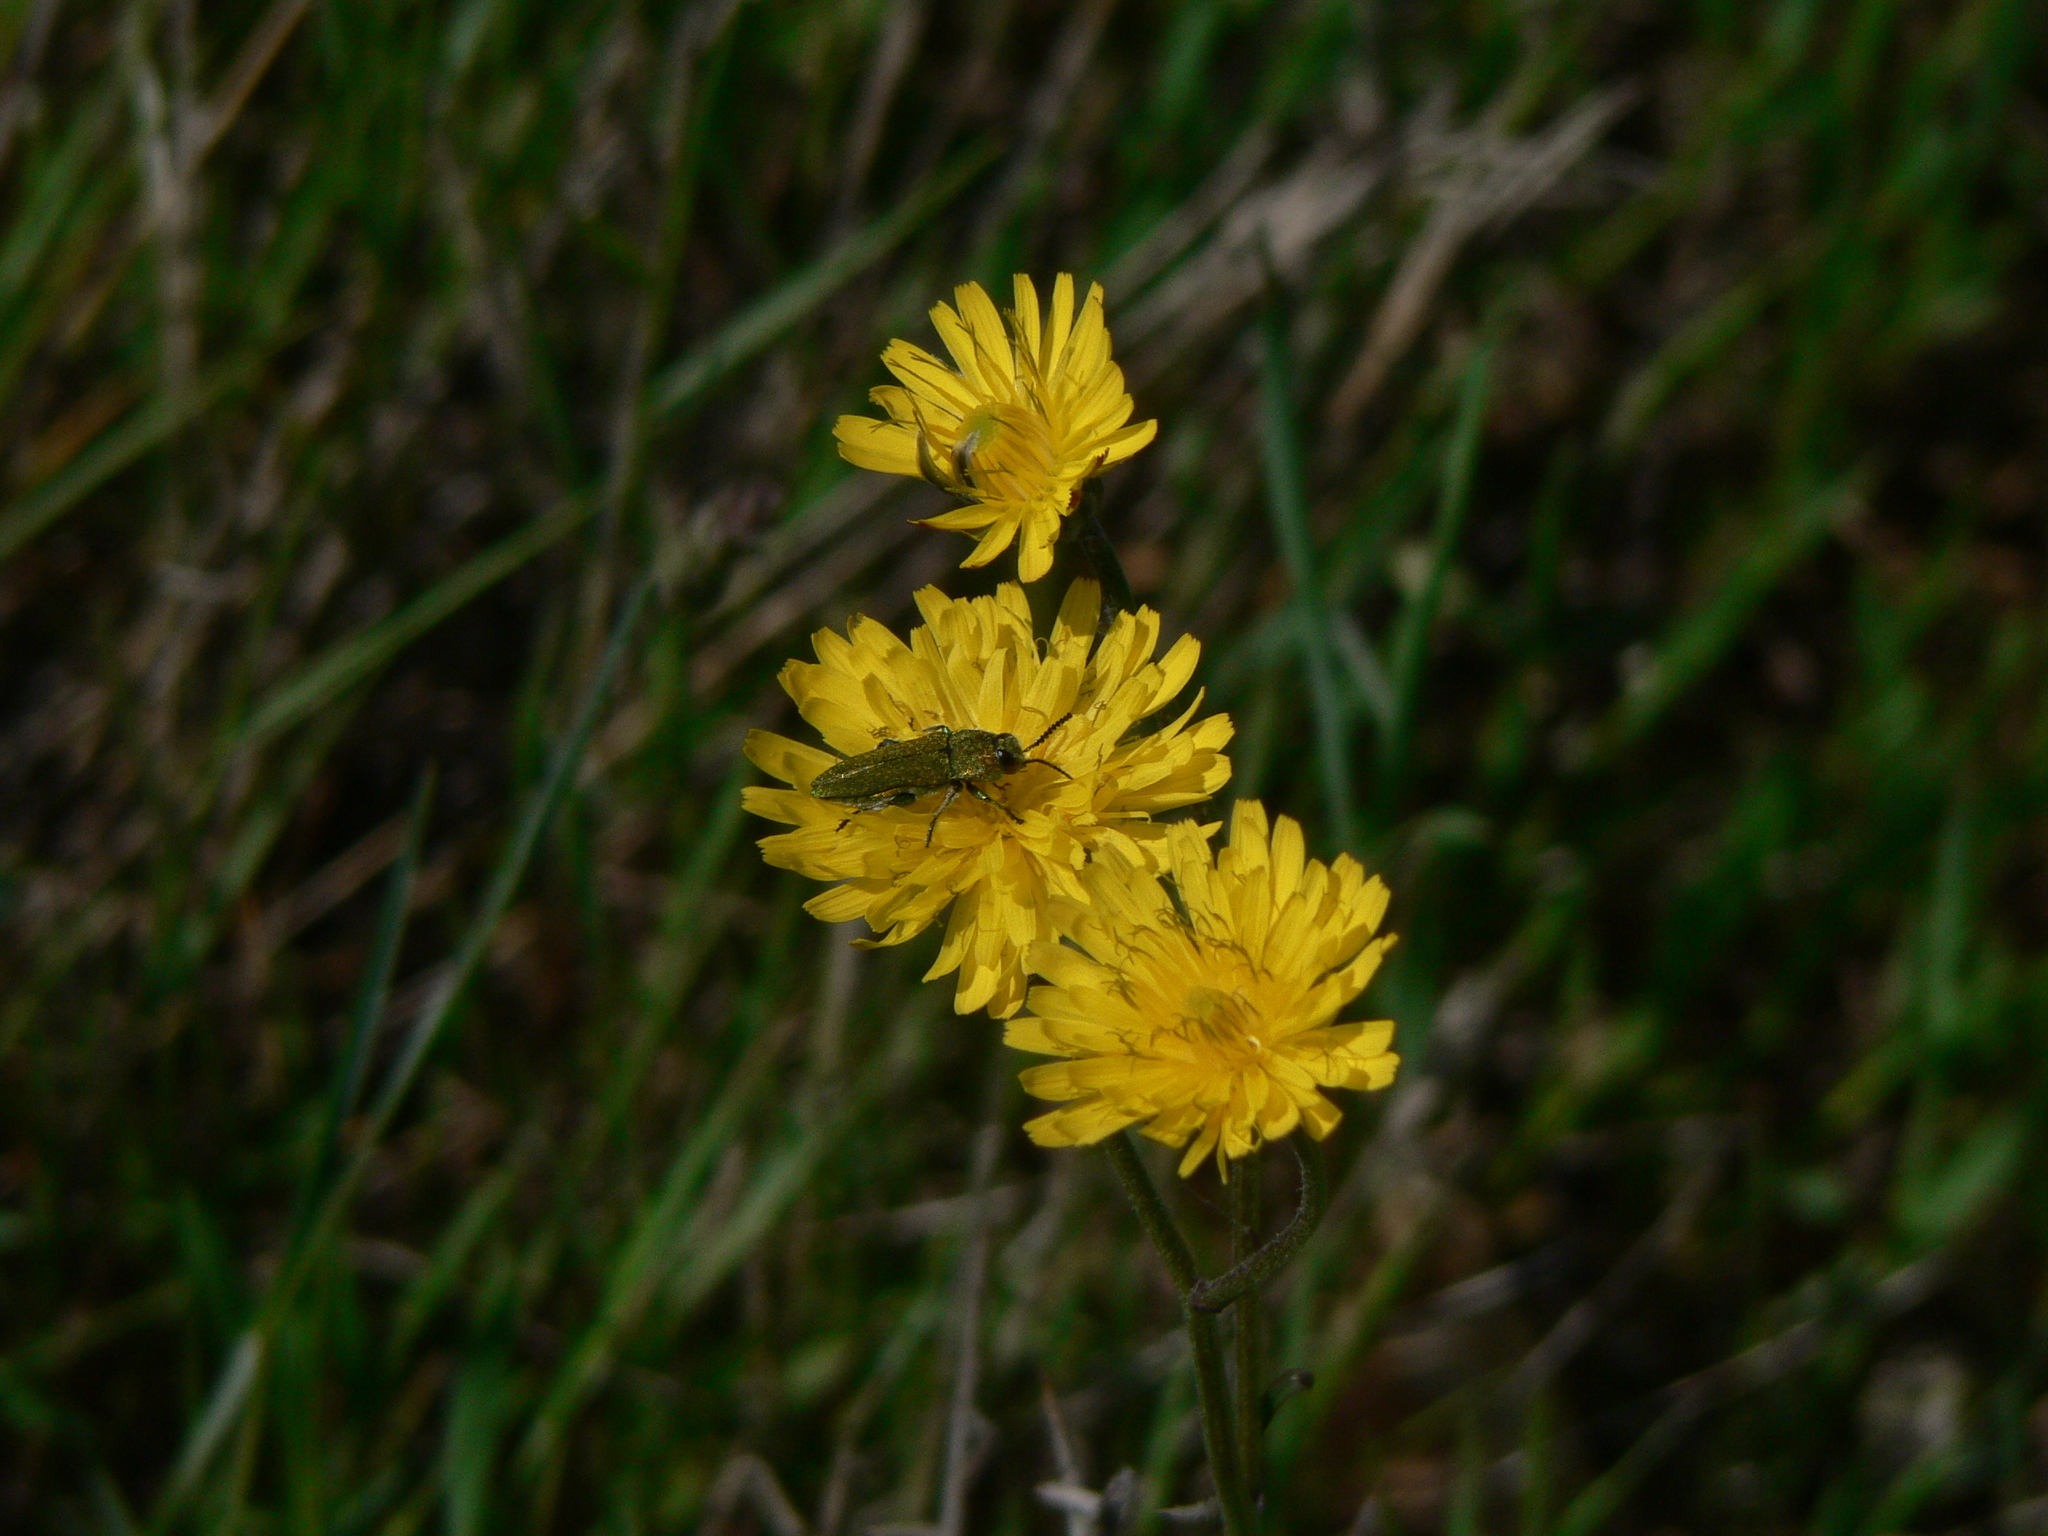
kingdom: Animalia
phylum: Arthropoda
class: Insecta
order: Coleoptera
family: Buprestidae
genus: Anthaxia
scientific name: Anthaxia hungarica
